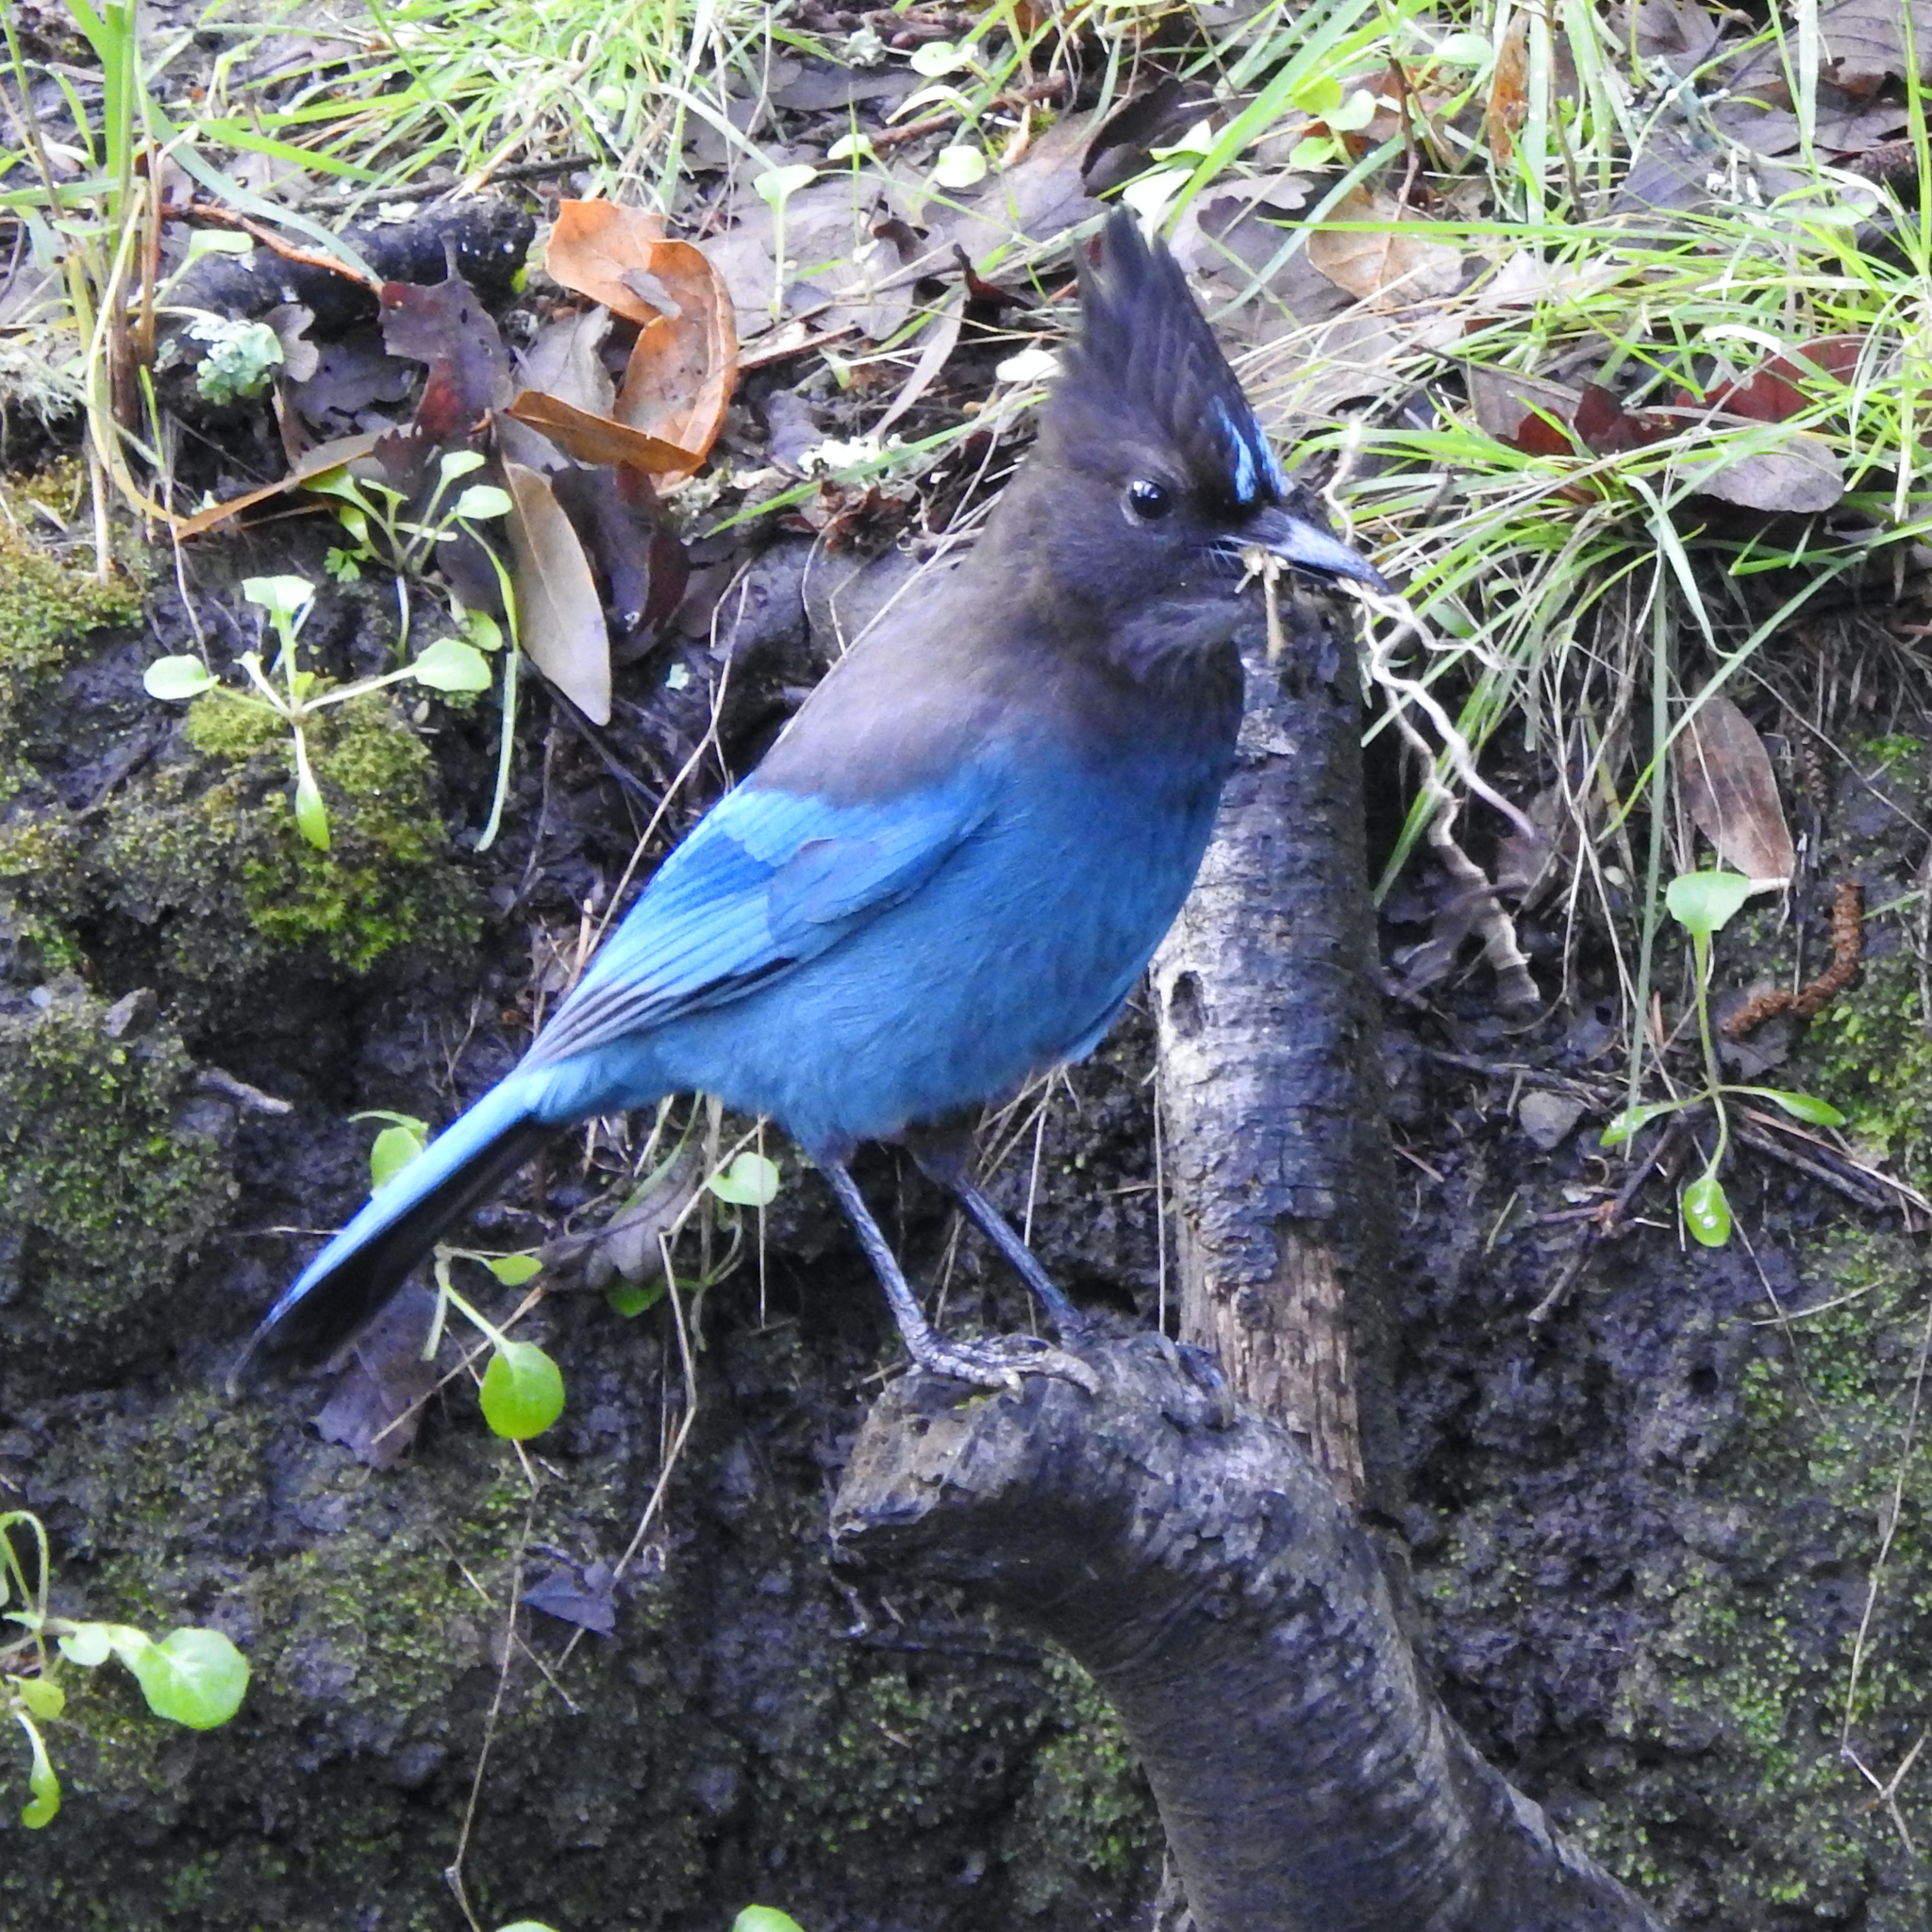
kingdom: Animalia
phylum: Chordata
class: Aves
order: Passeriformes
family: Corvidae
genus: Cyanocitta
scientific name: Cyanocitta stelleri
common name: Steller's jay
